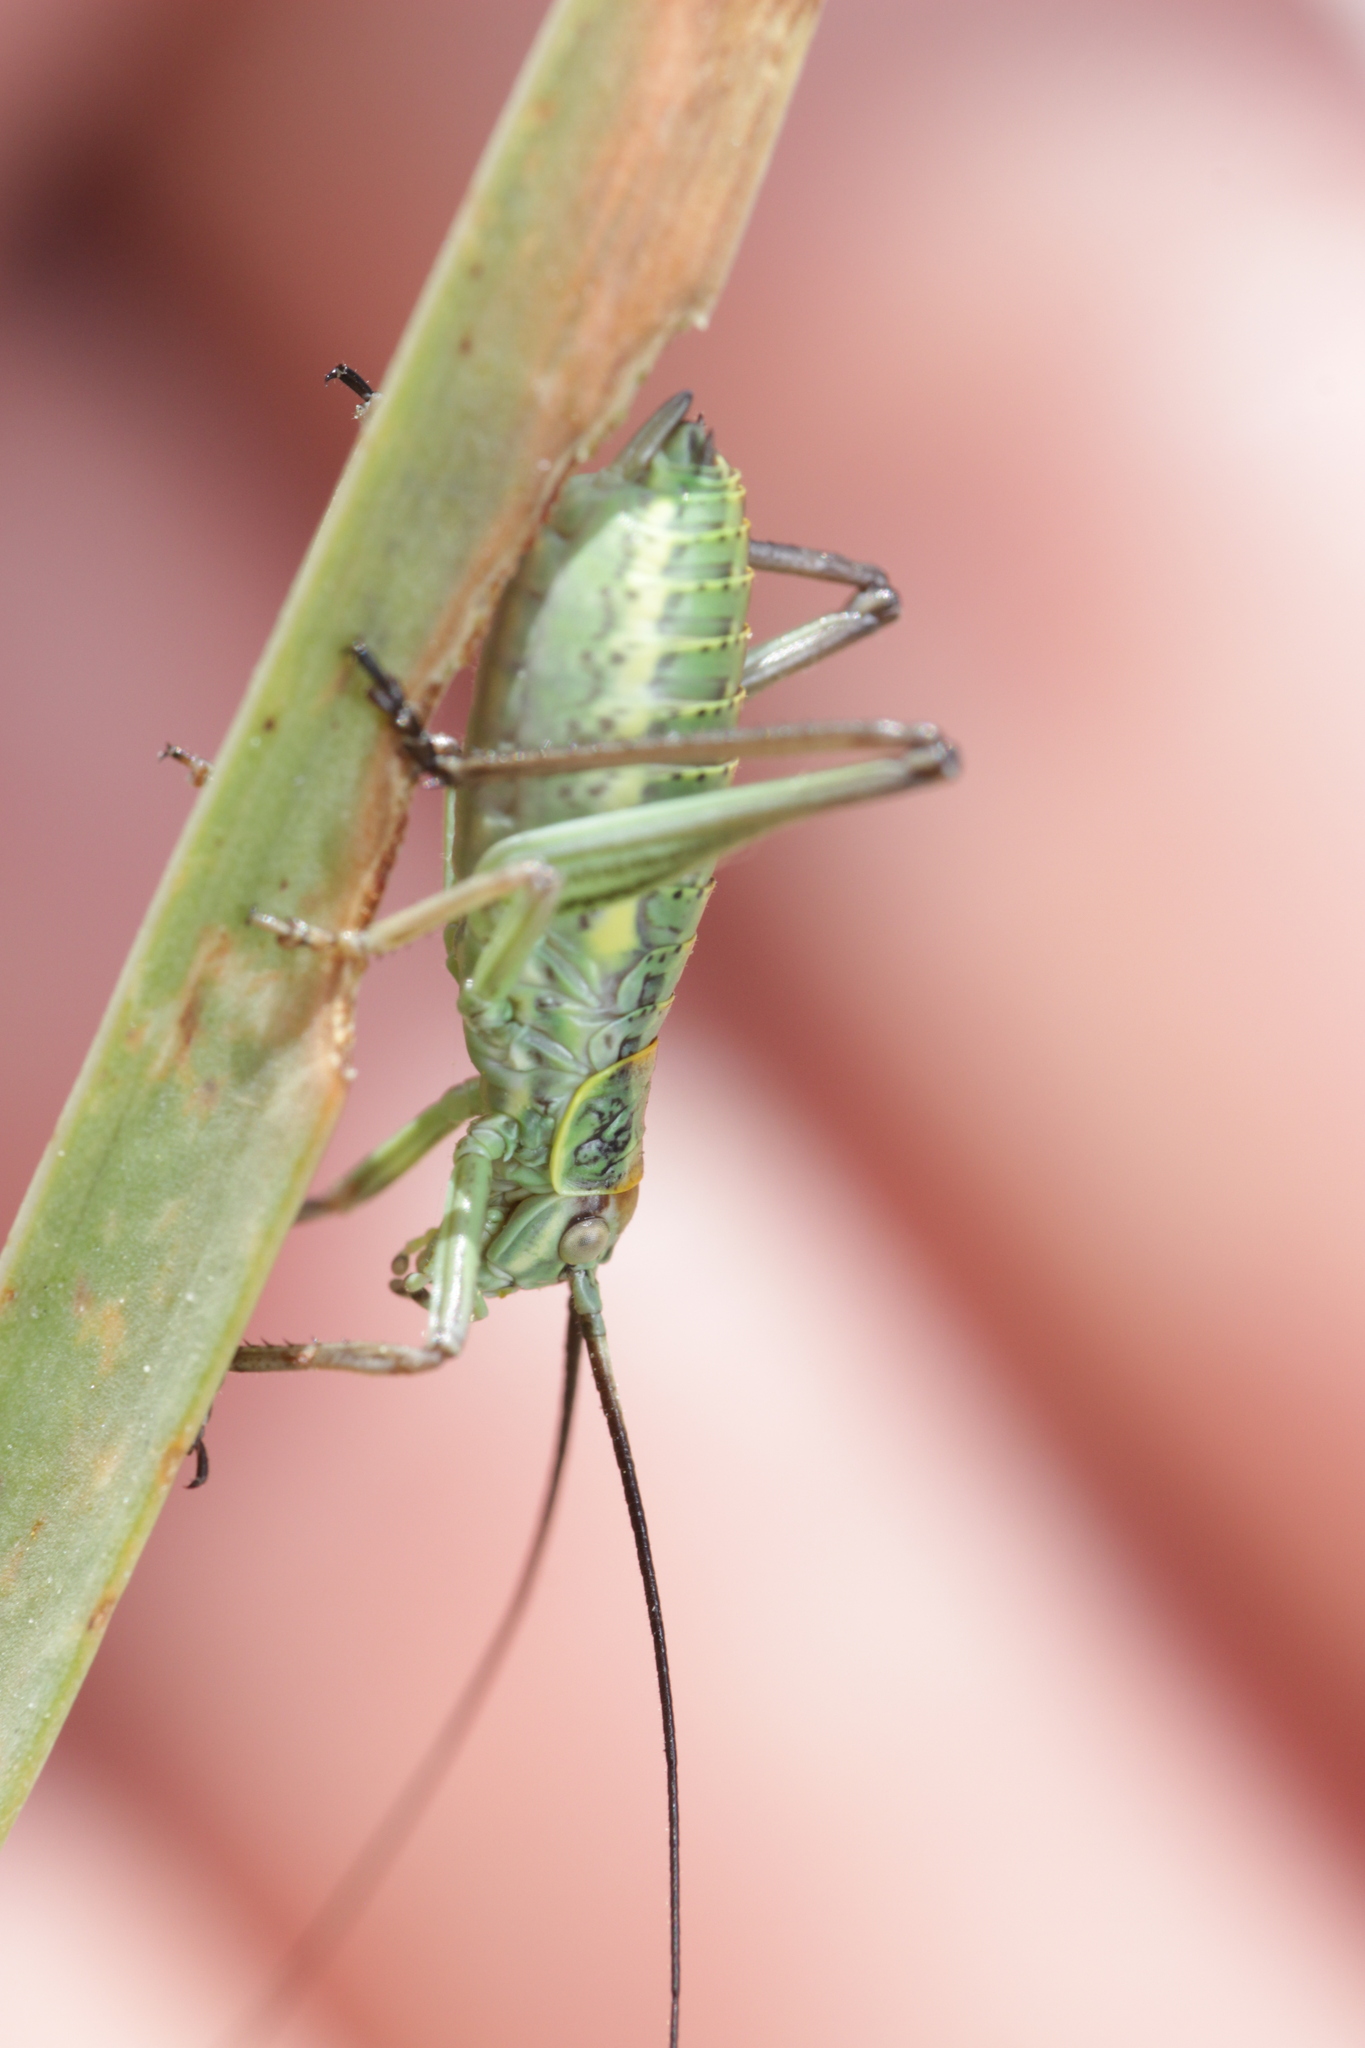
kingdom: Animalia
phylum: Arthropoda
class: Insecta
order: Orthoptera
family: Tettigoniidae
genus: Dinarippiger
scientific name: Dinarippiger discoidalis
